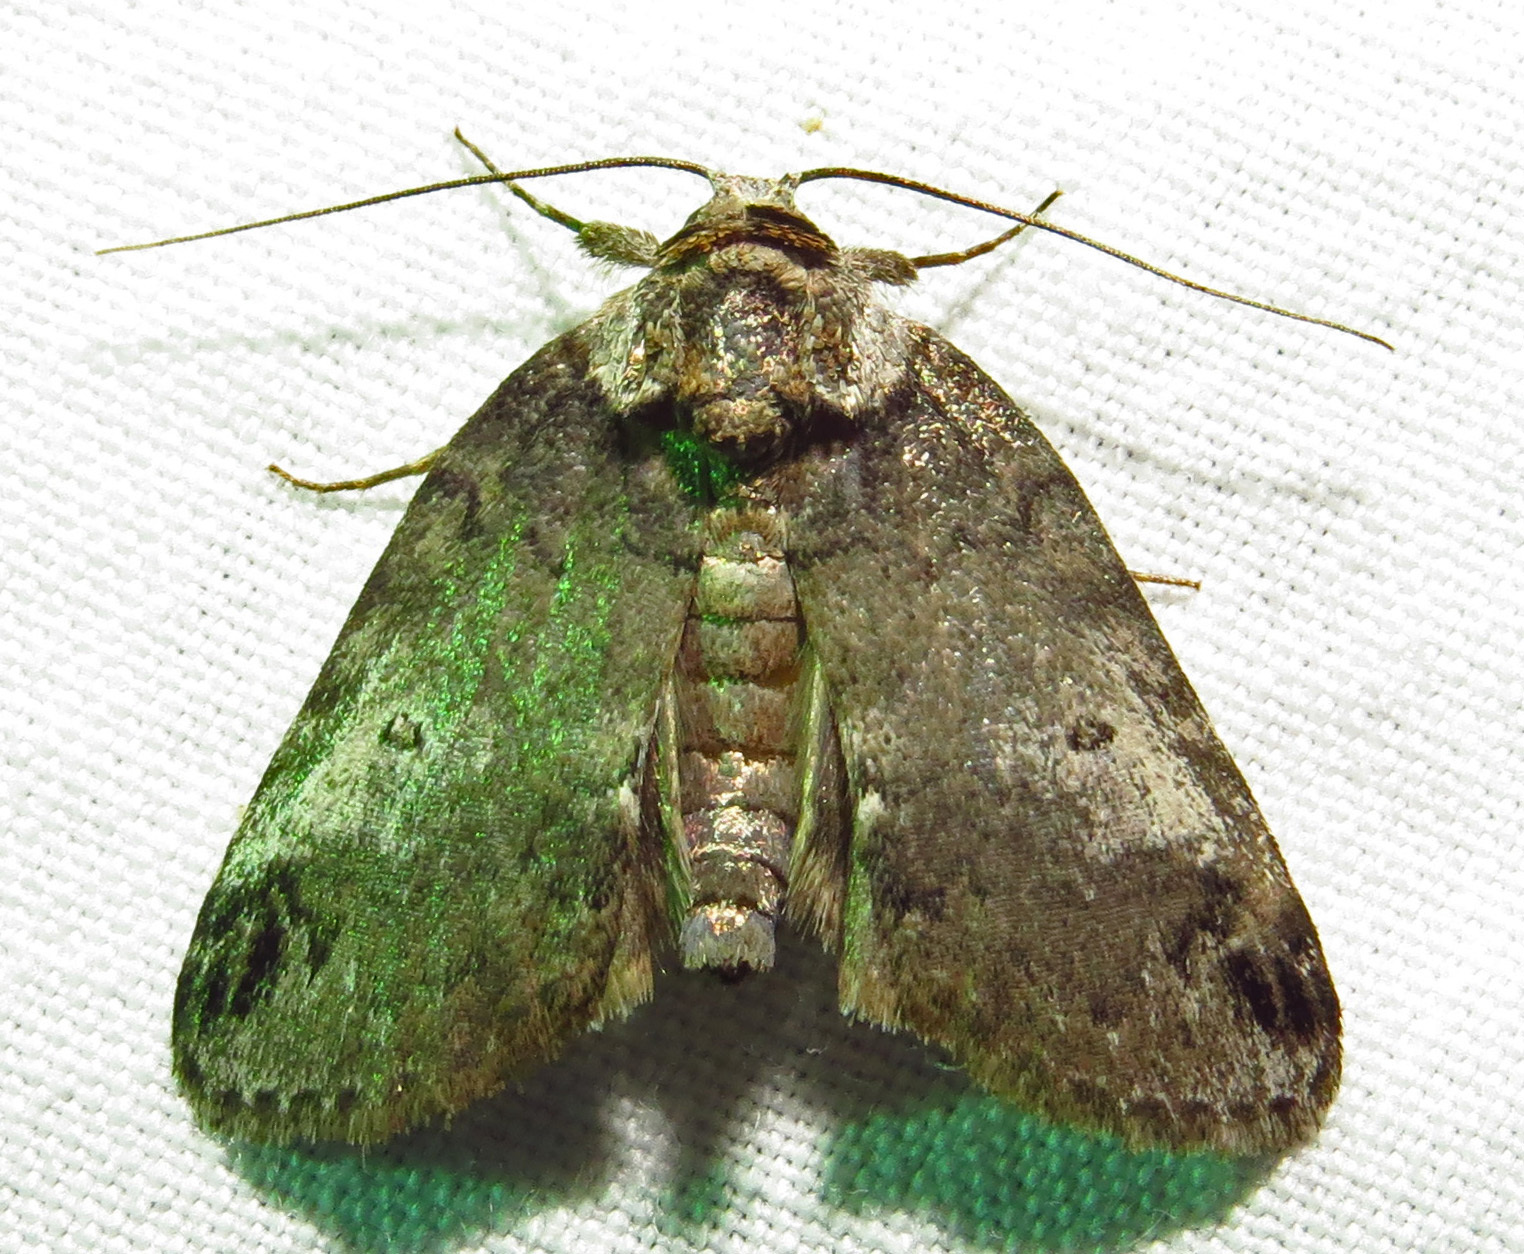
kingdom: Animalia
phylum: Arthropoda
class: Insecta
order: Lepidoptera
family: Nolidae
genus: Baileya
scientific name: Baileya australis
